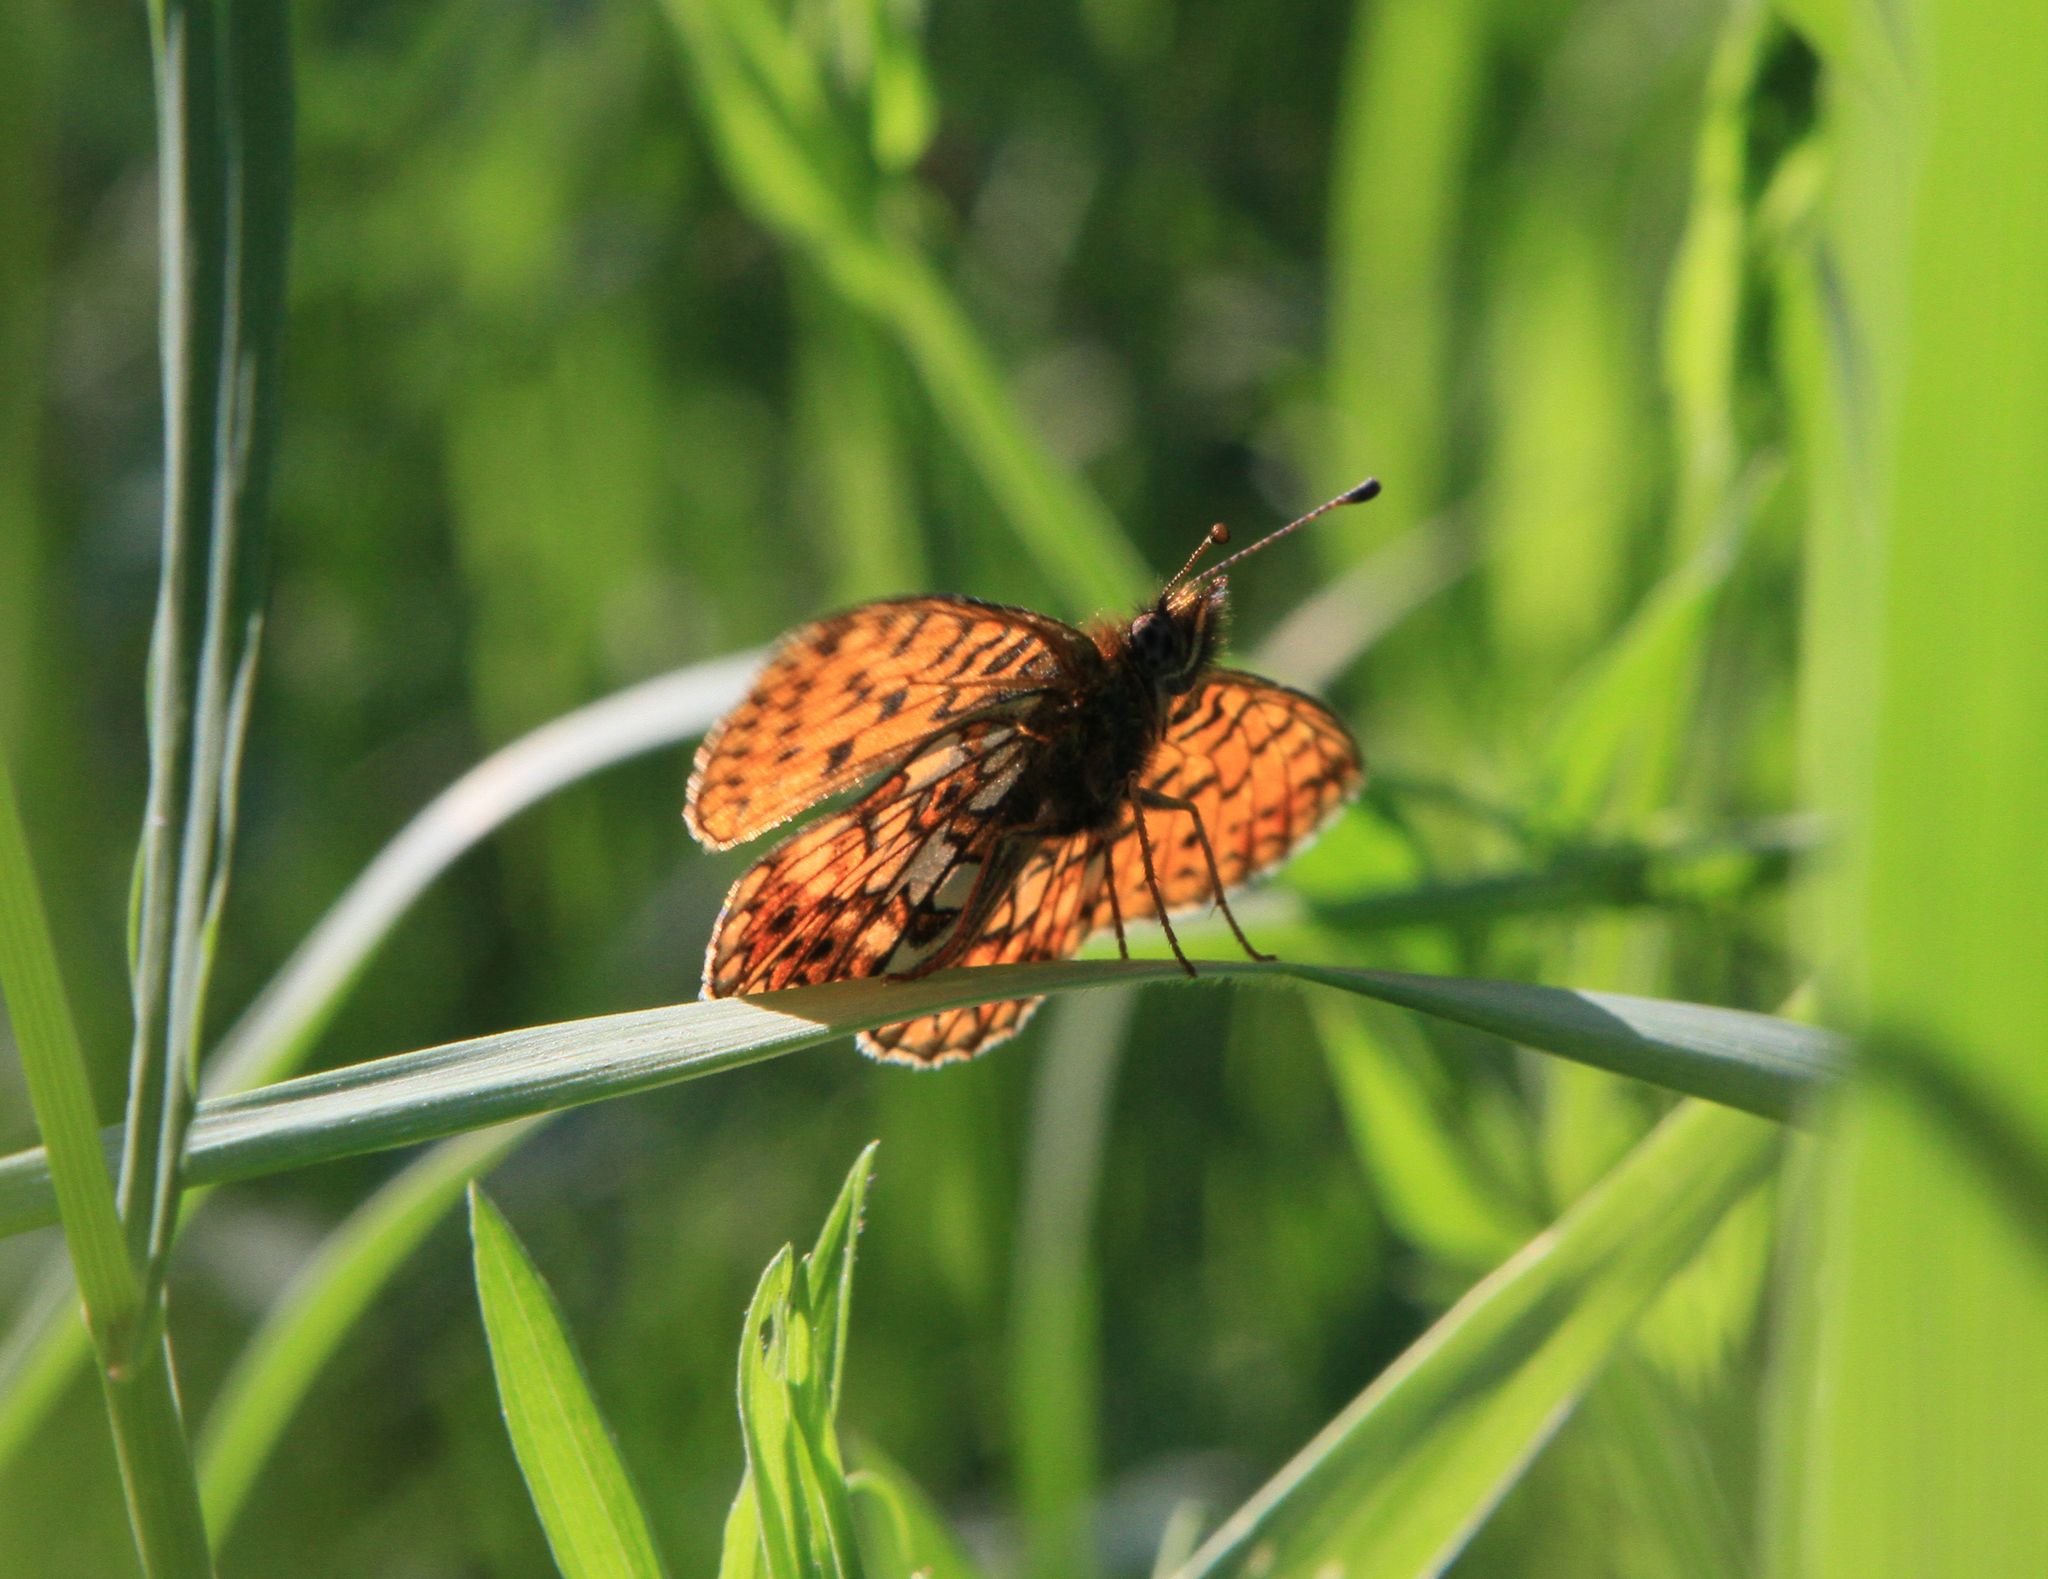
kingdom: Animalia
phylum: Arthropoda
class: Insecta
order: Lepidoptera
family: Nymphalidae
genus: Boloria
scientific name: Boloria selene
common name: Small pearl-bordered fritillary
